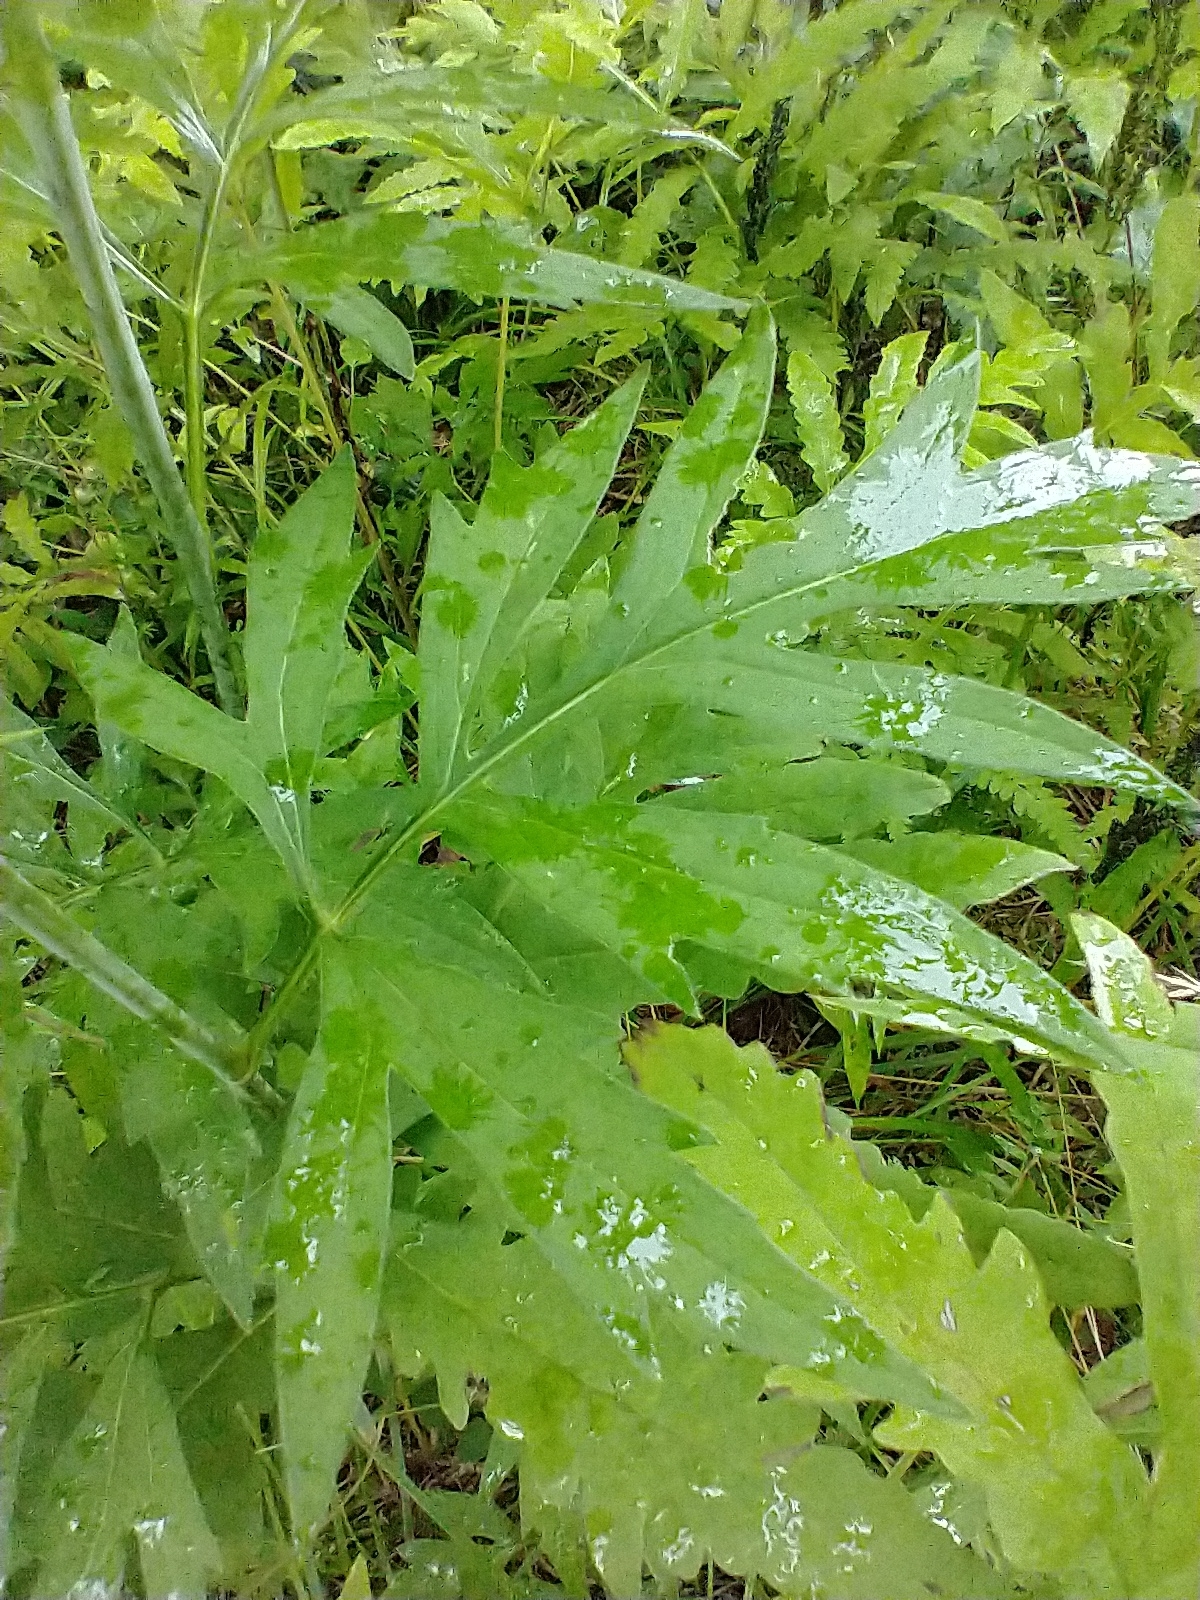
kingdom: Plantae
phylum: Tracheophyta
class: Magnoliopsida
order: Asterales
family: Asteraceae
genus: Rudbeckia
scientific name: Rudbeckia laciniata
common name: Coneflower
